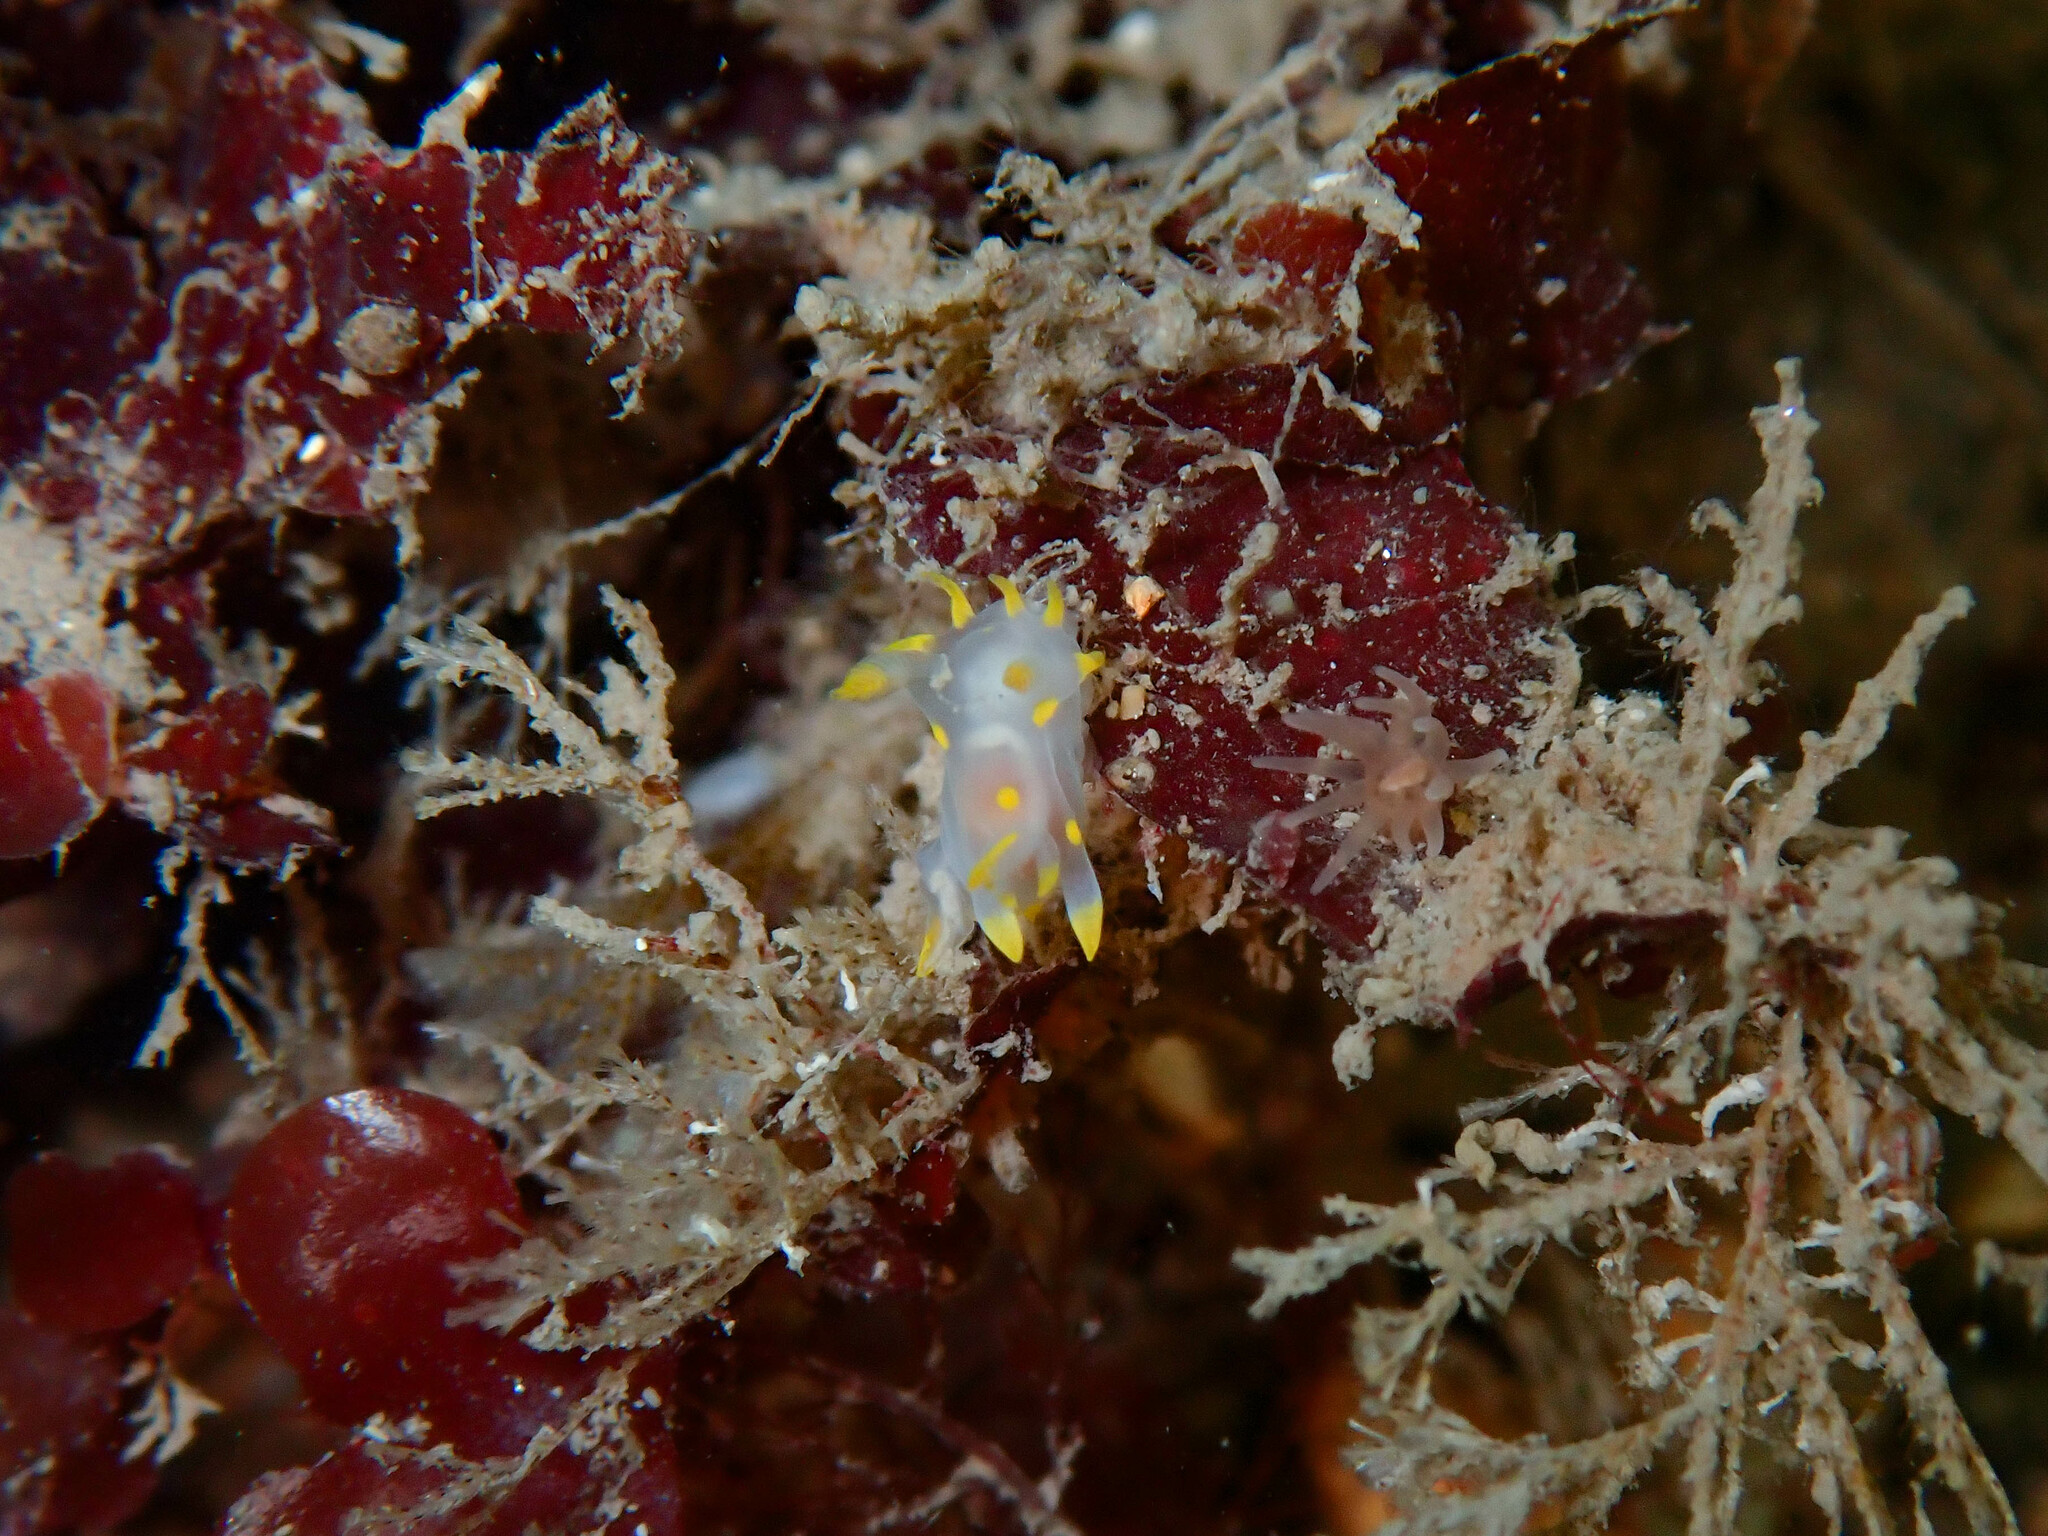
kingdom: Animalia
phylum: Mollusca
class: Gastropoda
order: Nudibranchia
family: Polyceridae
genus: Polycera
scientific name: Polycera quadrilineata
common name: Four-striped polycera
